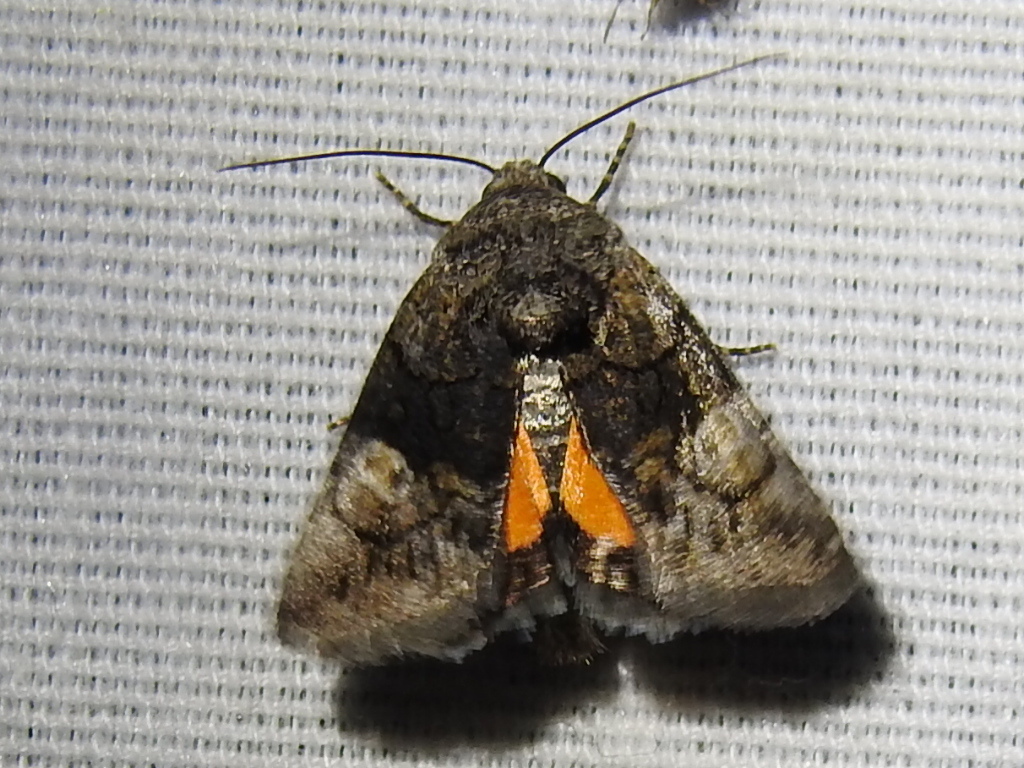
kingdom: Animalia
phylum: Arthropoda
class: Insecta
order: Lepidoptera
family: Noctuidae
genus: Copanarta
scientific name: Copanarta aurea
